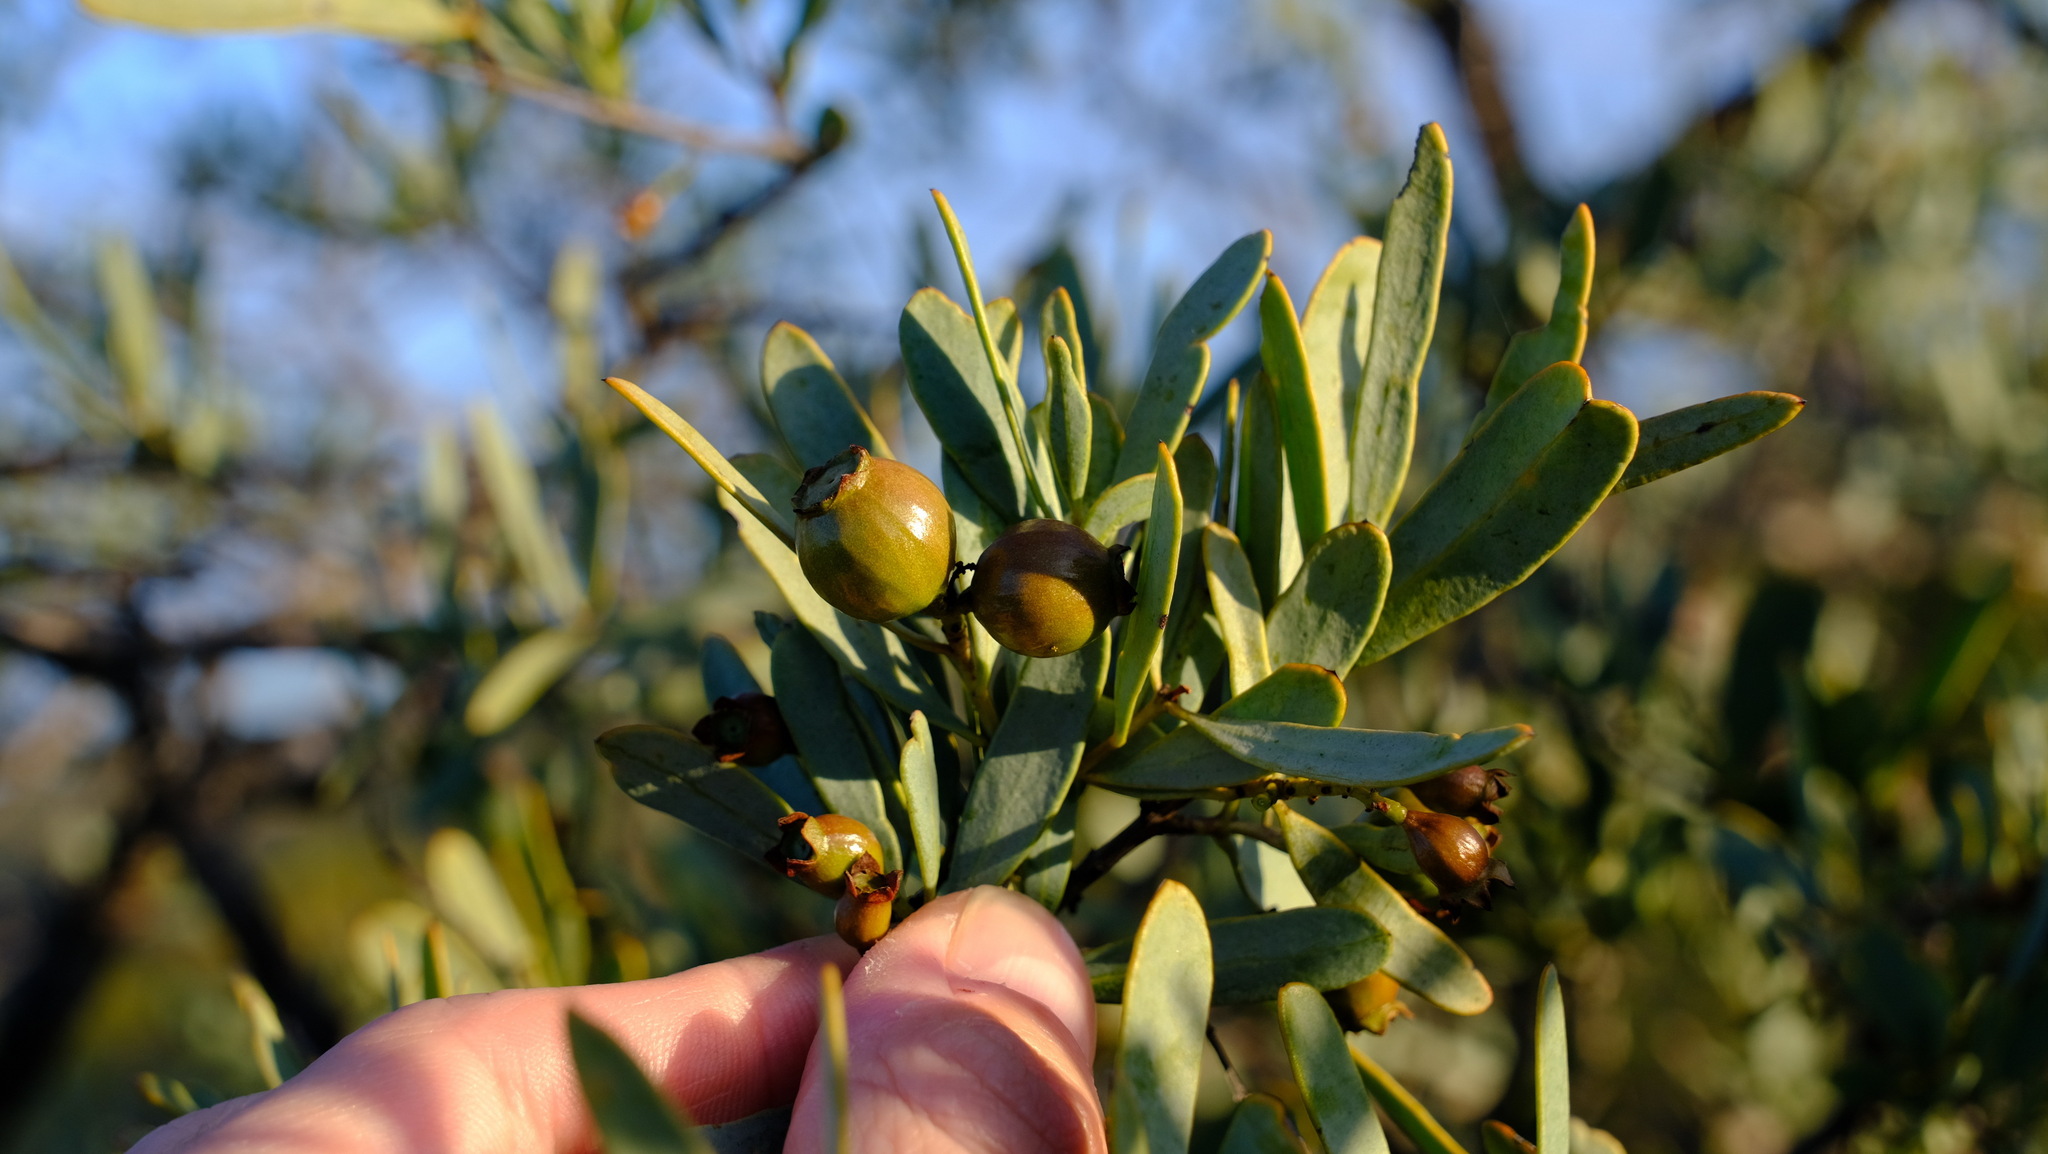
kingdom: Plantae
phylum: Tracheophyta
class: Magnoliopsida
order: Santalales
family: Santalaceae
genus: Santalum
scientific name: Santalum spicatum
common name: West australian sandalwood
